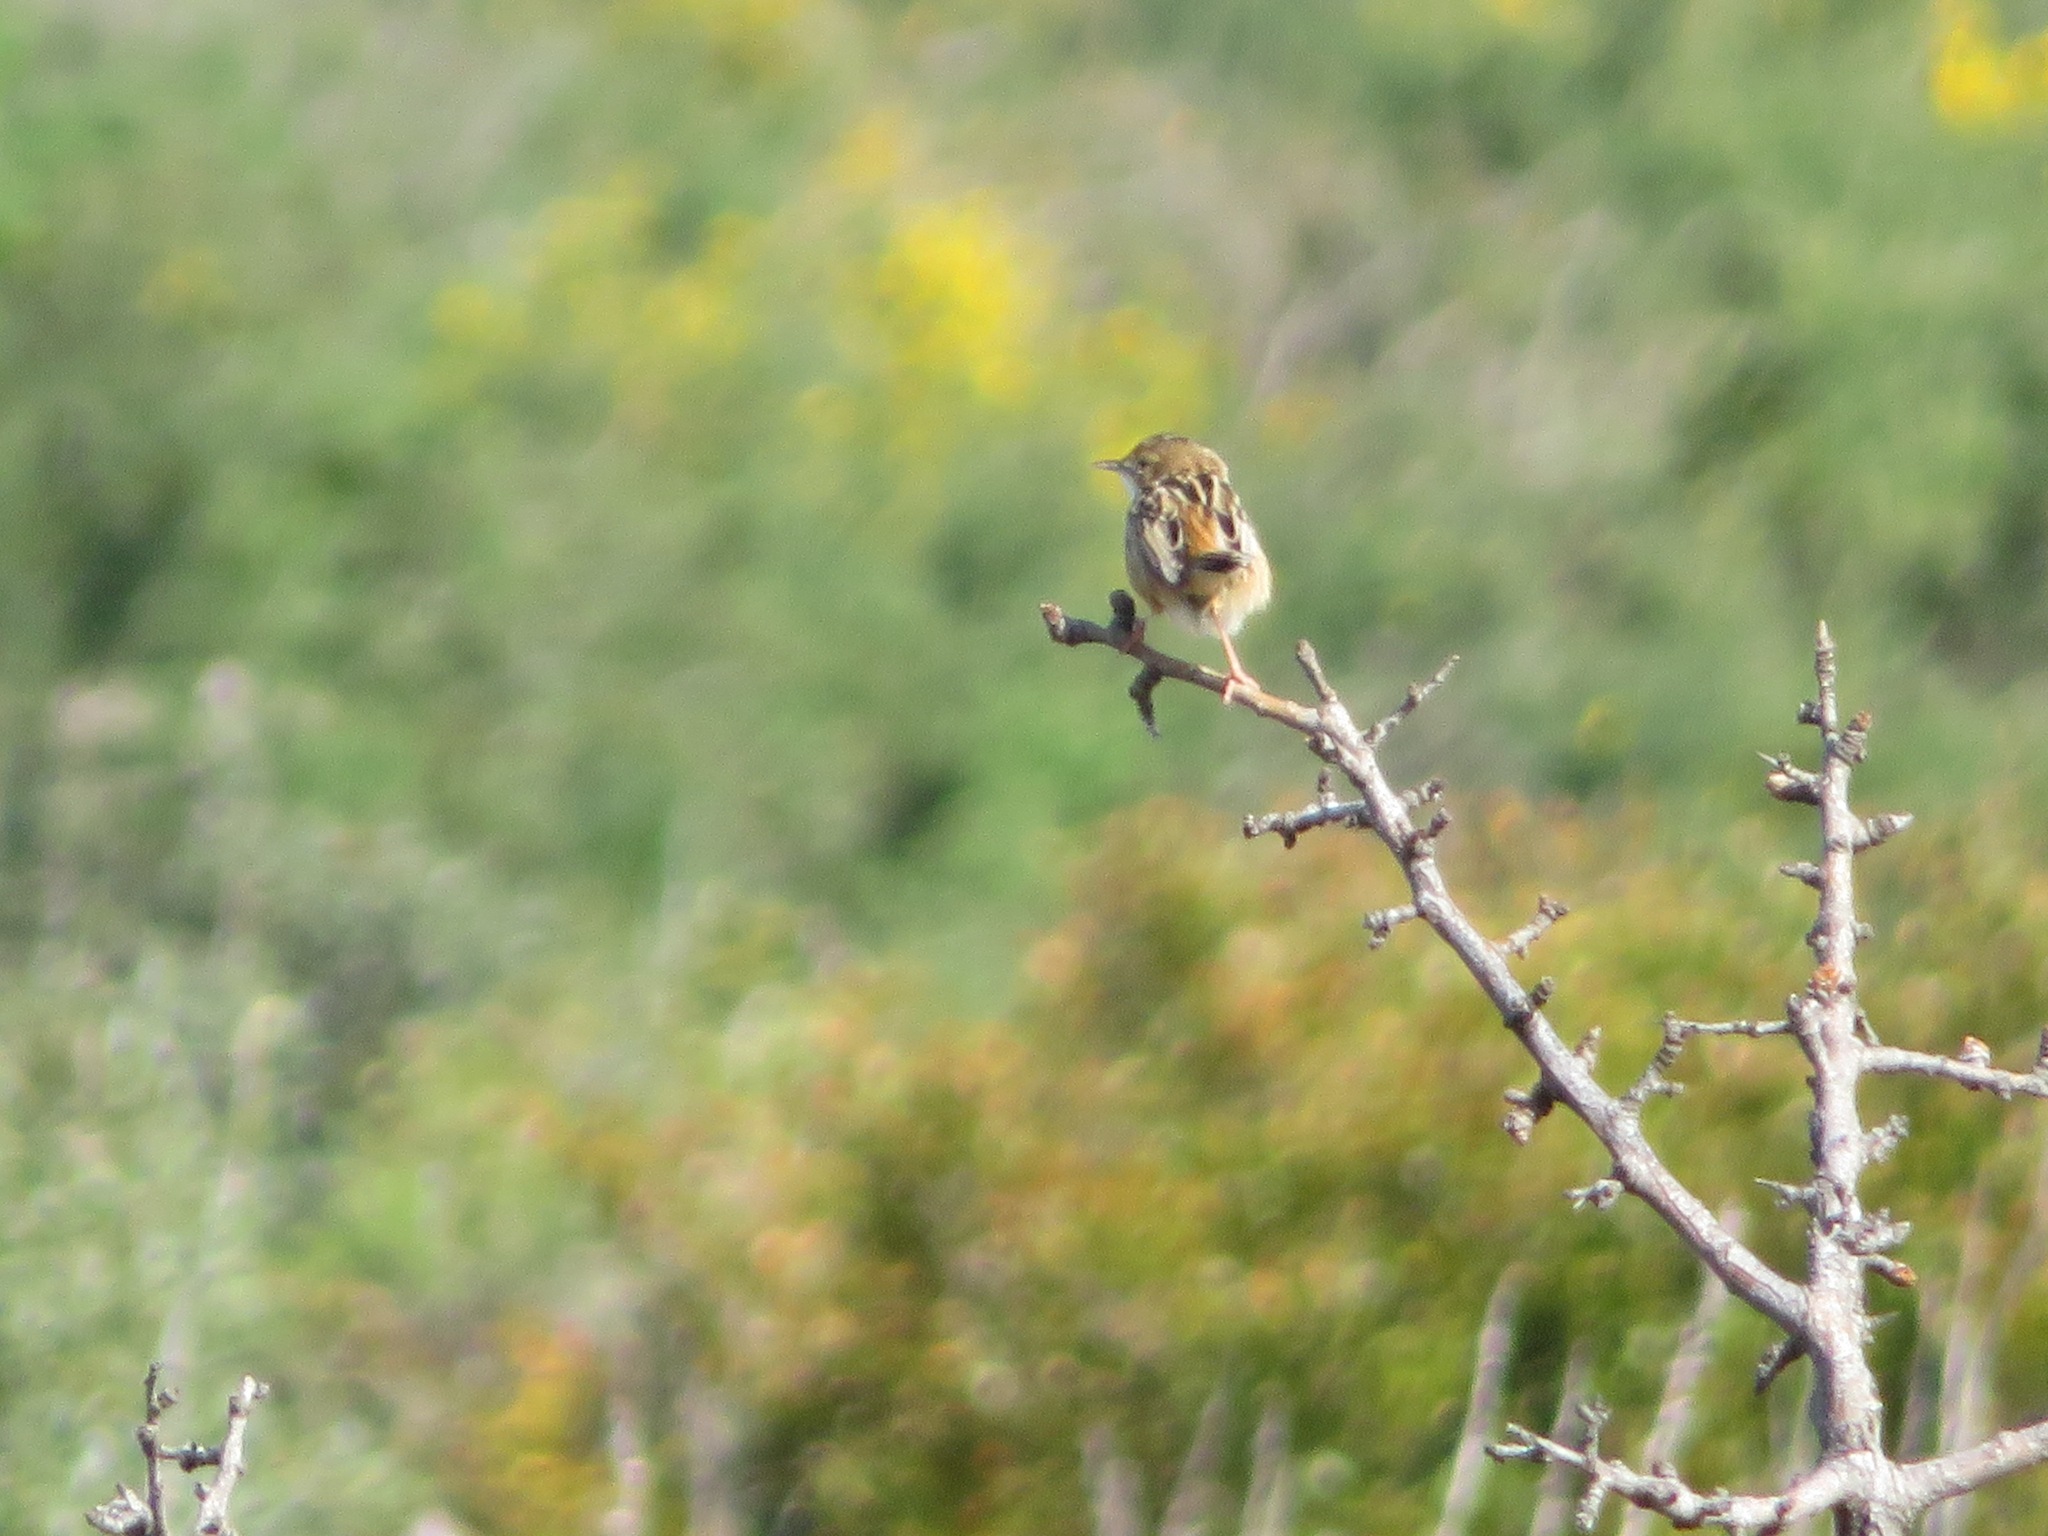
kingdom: Animalia
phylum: Chordata
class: Aves
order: Passeriformes
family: Cisticolidae
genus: Cisticola
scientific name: Cisticola juncidis
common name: Zitting cisticola
